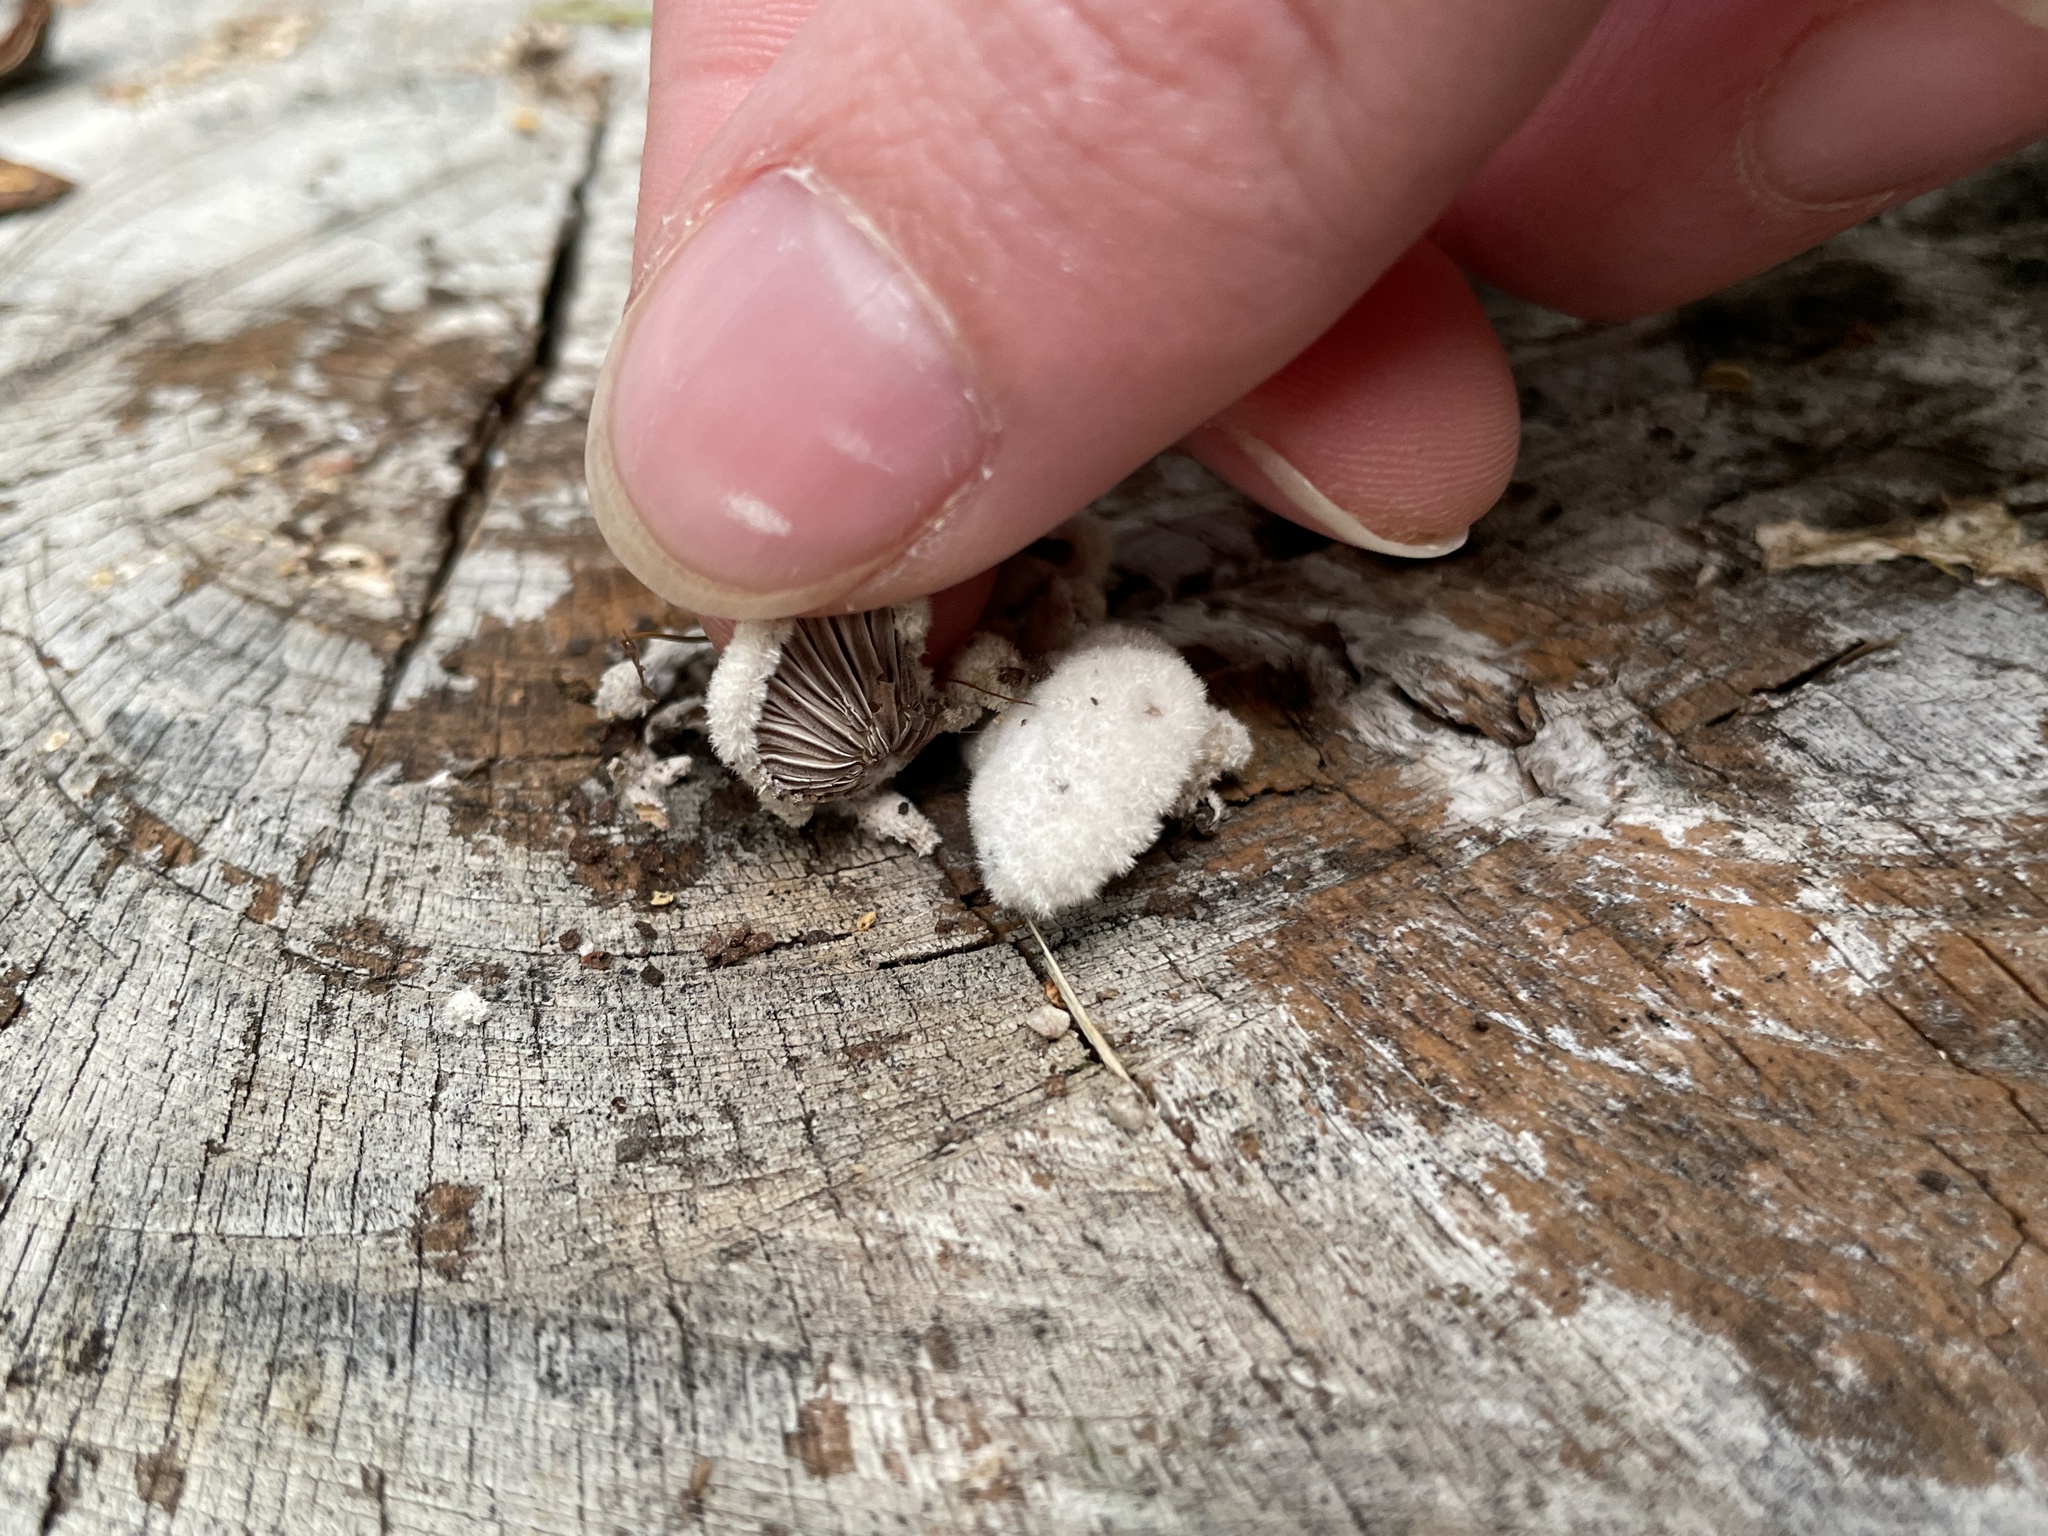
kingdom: Fungi
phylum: Basidiomycota
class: Agaricomycetes
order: Agaricales
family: Schizophyllaceae
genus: Schizophyllum
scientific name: Schizophyllum commune
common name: Common porecrust
